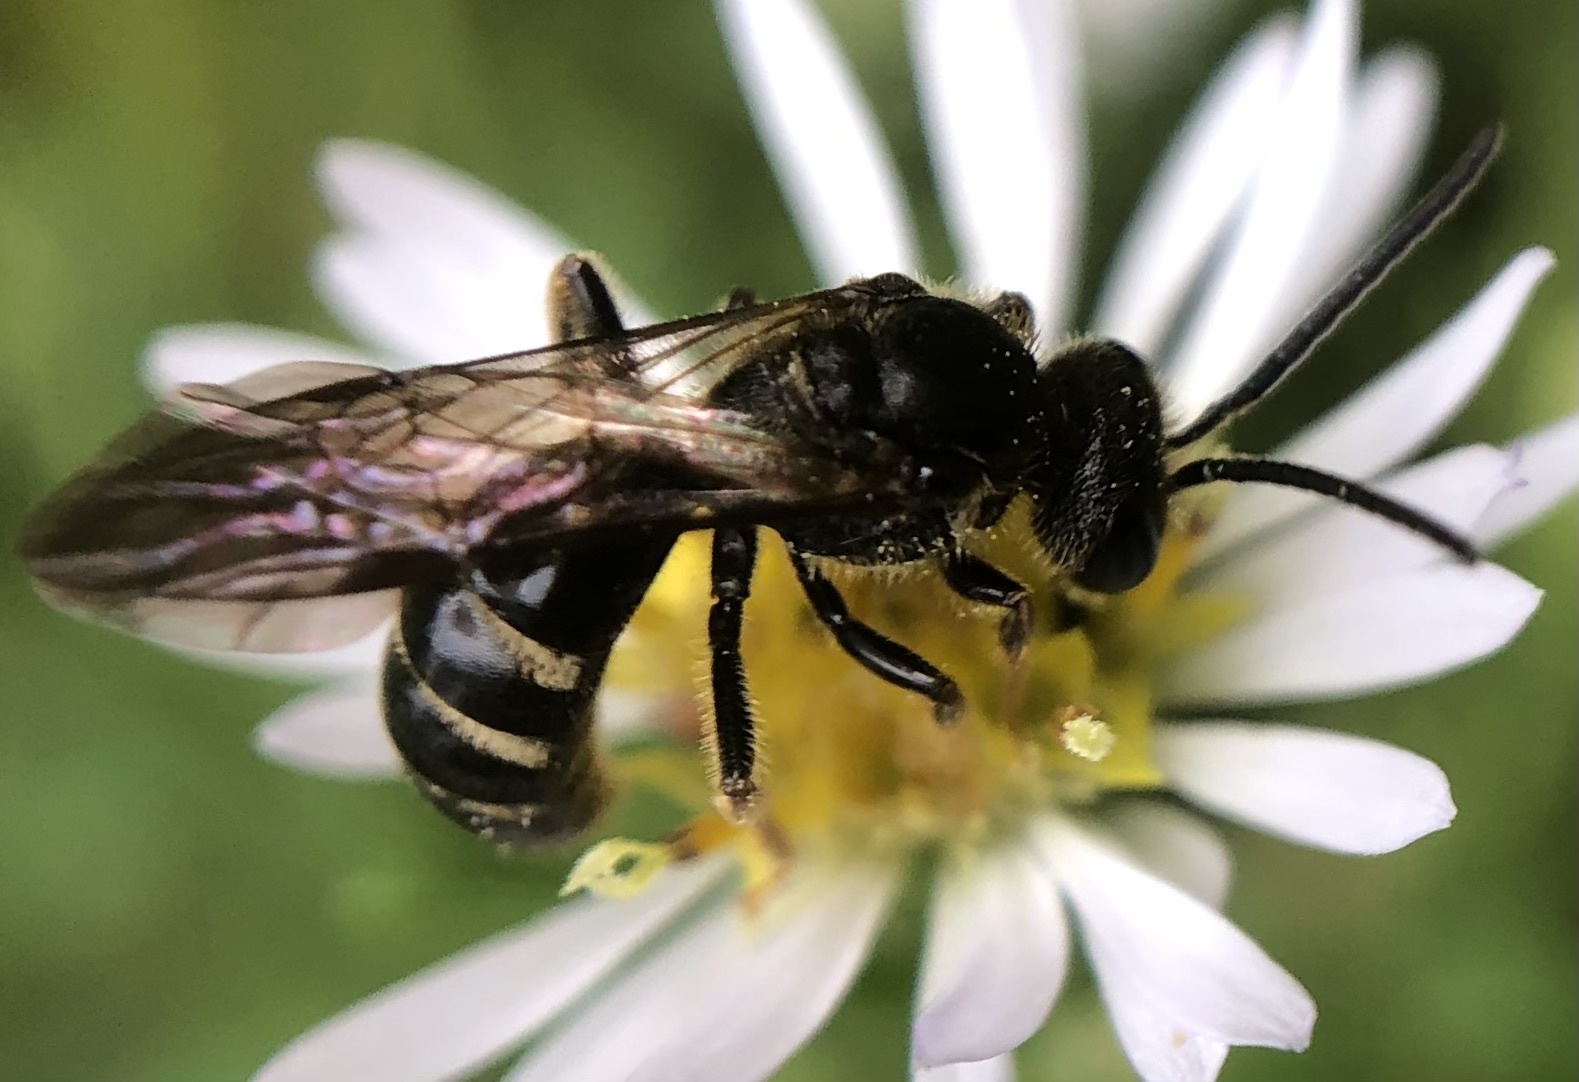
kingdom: Animalia
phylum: Arthropoda
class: Insecta
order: Hymenoptera
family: Halictidae
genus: Lasioglossum
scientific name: Lasioglossum fuscipenne
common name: Brown-winged sweat bee
